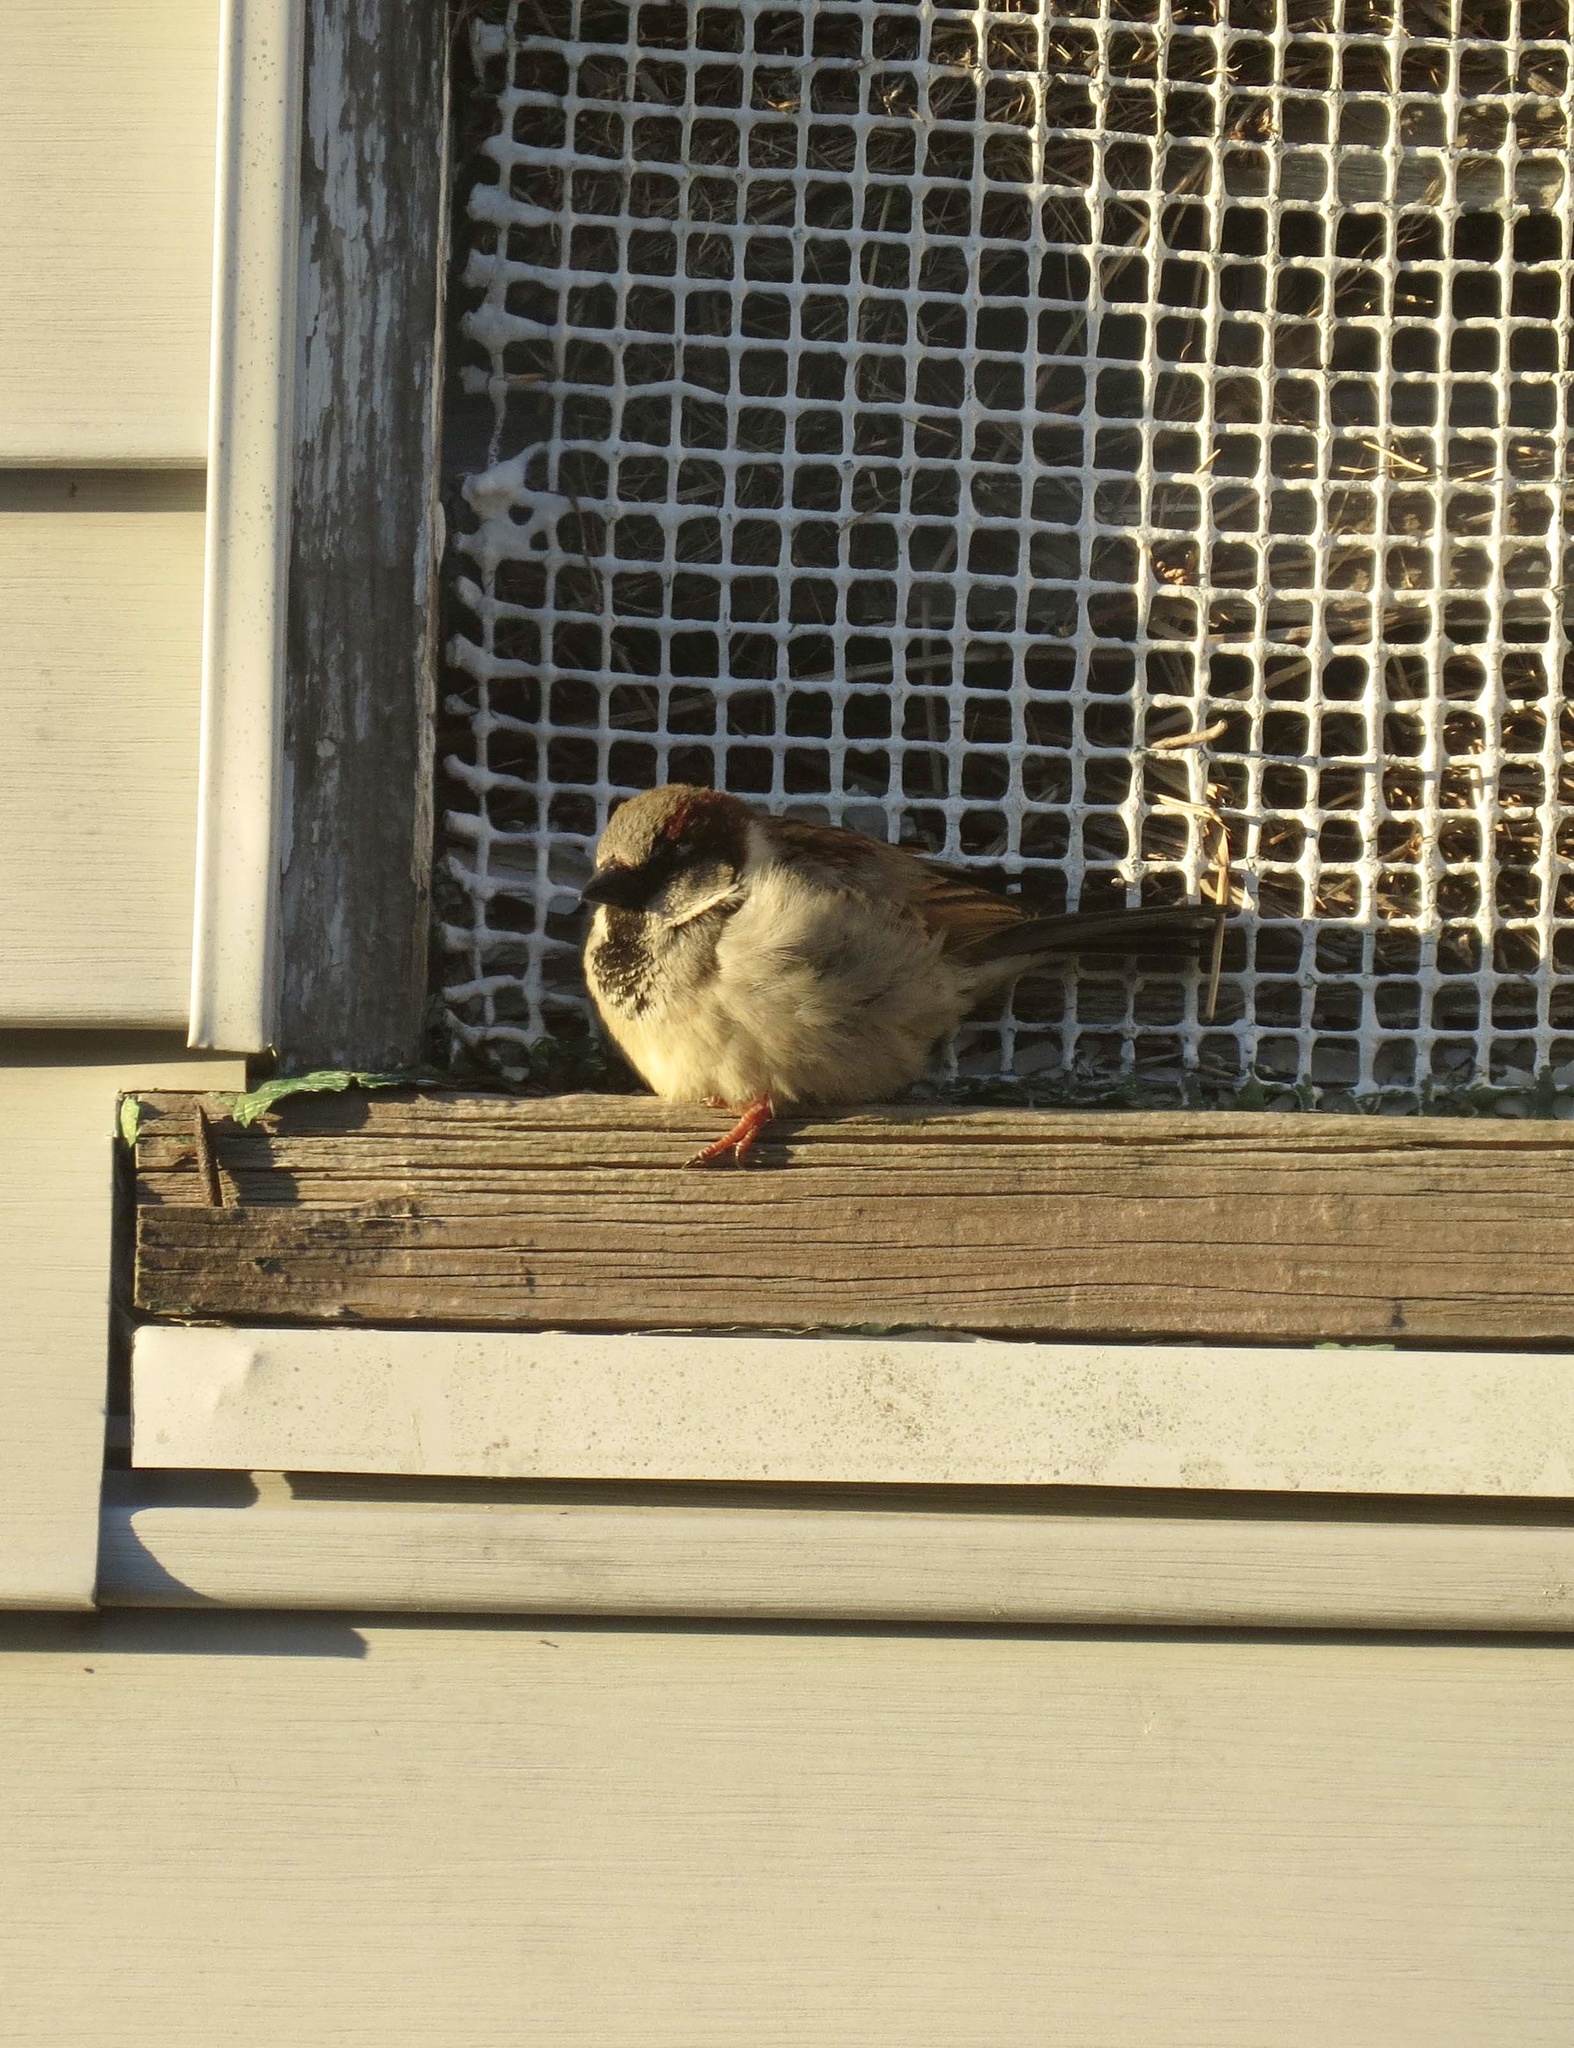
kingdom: Animalia
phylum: Chordata
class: Aves
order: Passeriformes
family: Passeridae
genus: Passer
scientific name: Passer domesticus
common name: House sparrow
